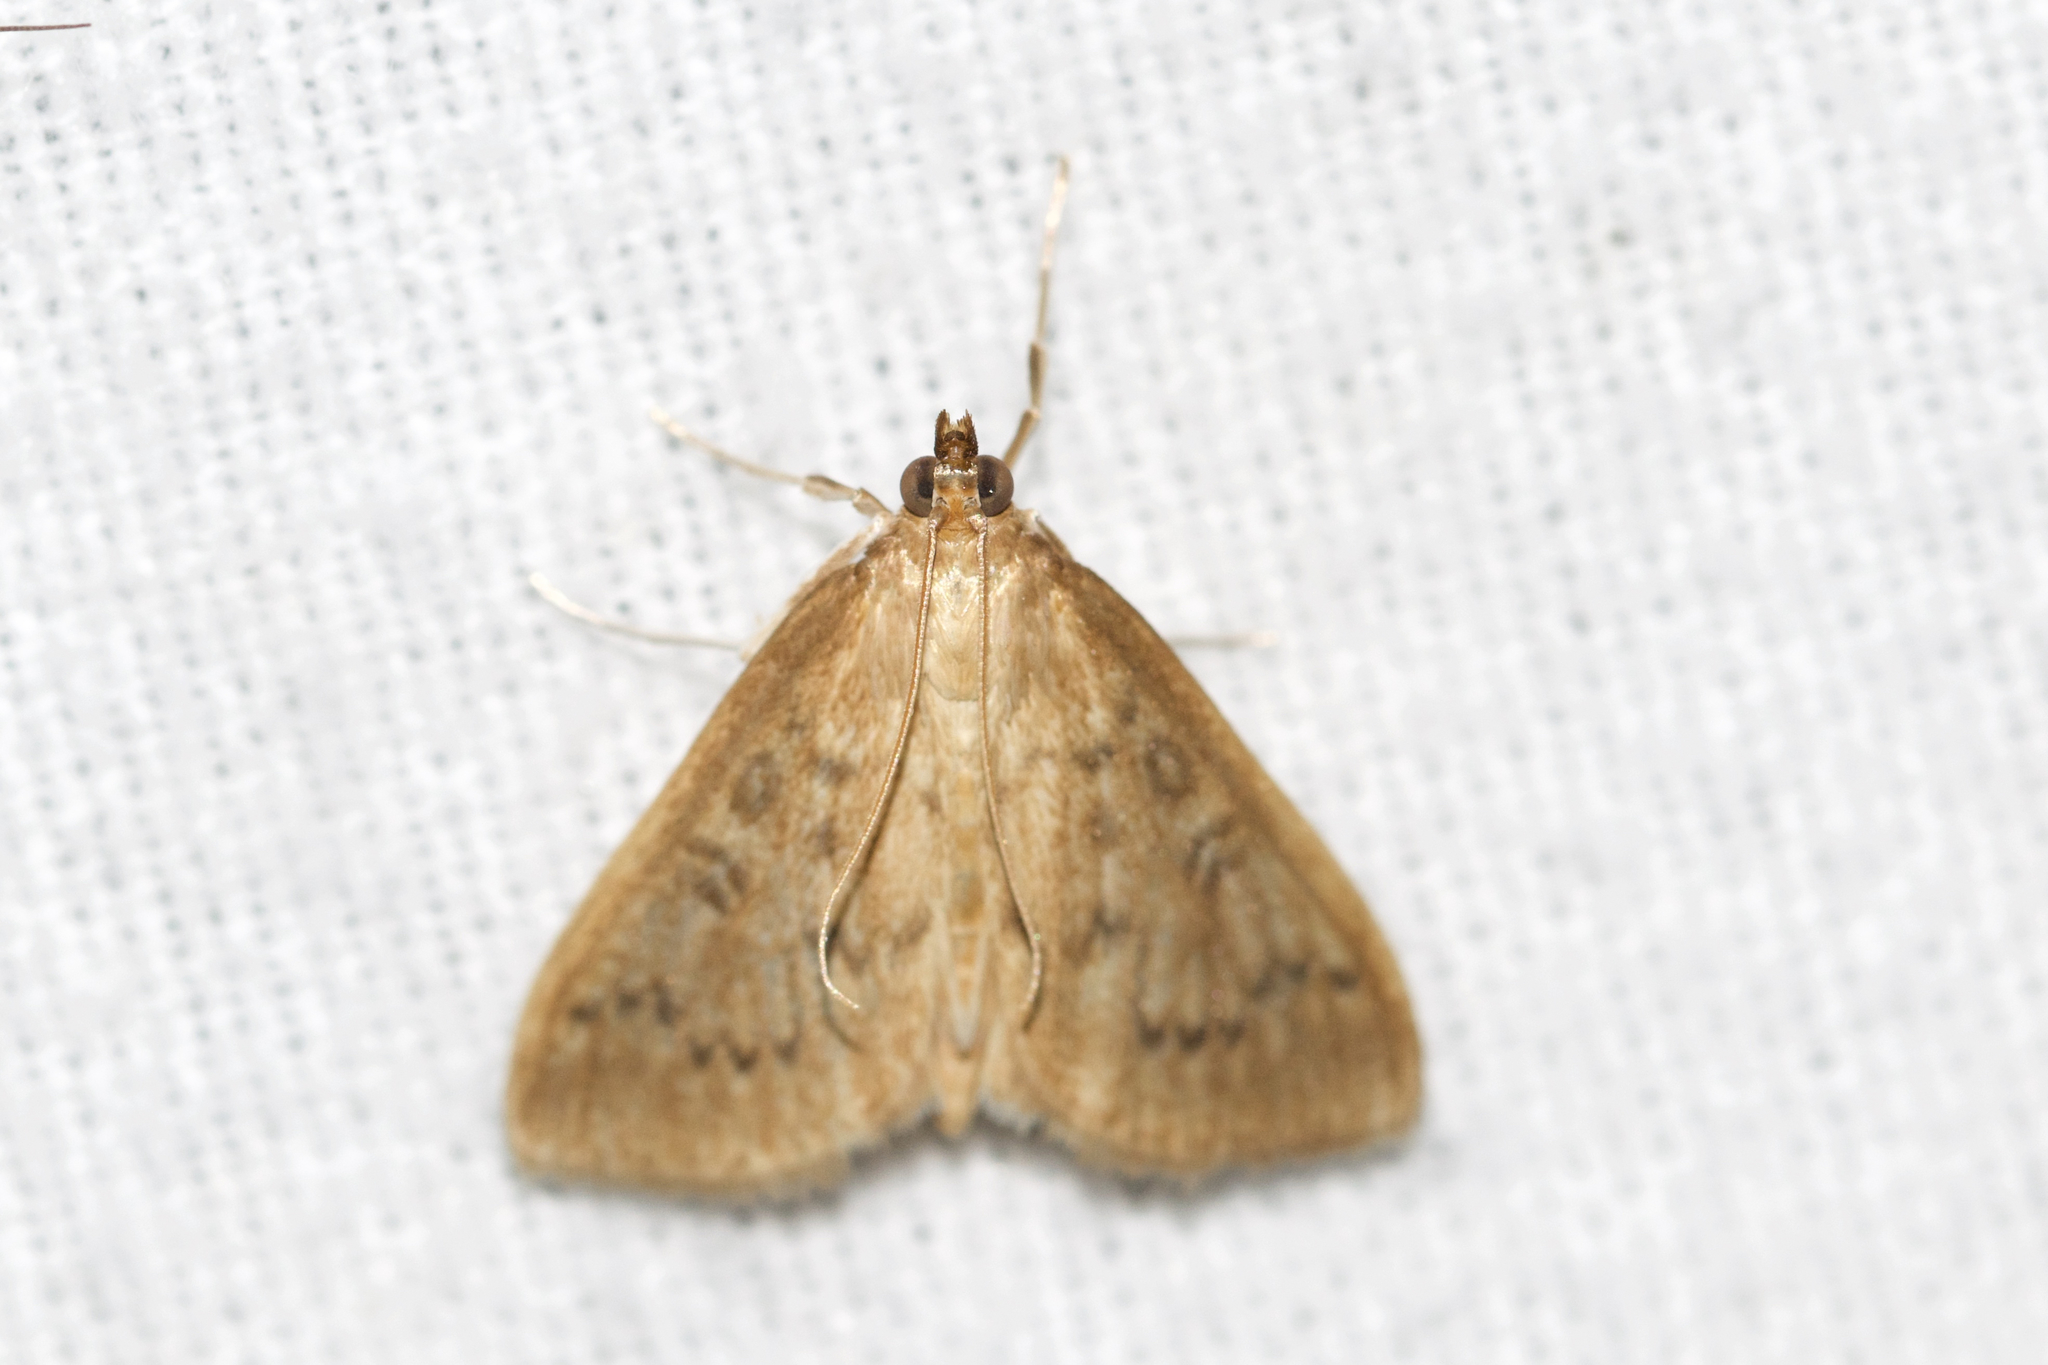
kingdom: Animalia
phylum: Arthropoda
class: Insecta
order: Lepidoptera
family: Crambidae
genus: Anania
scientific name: Anania Framinghamia helvalis
